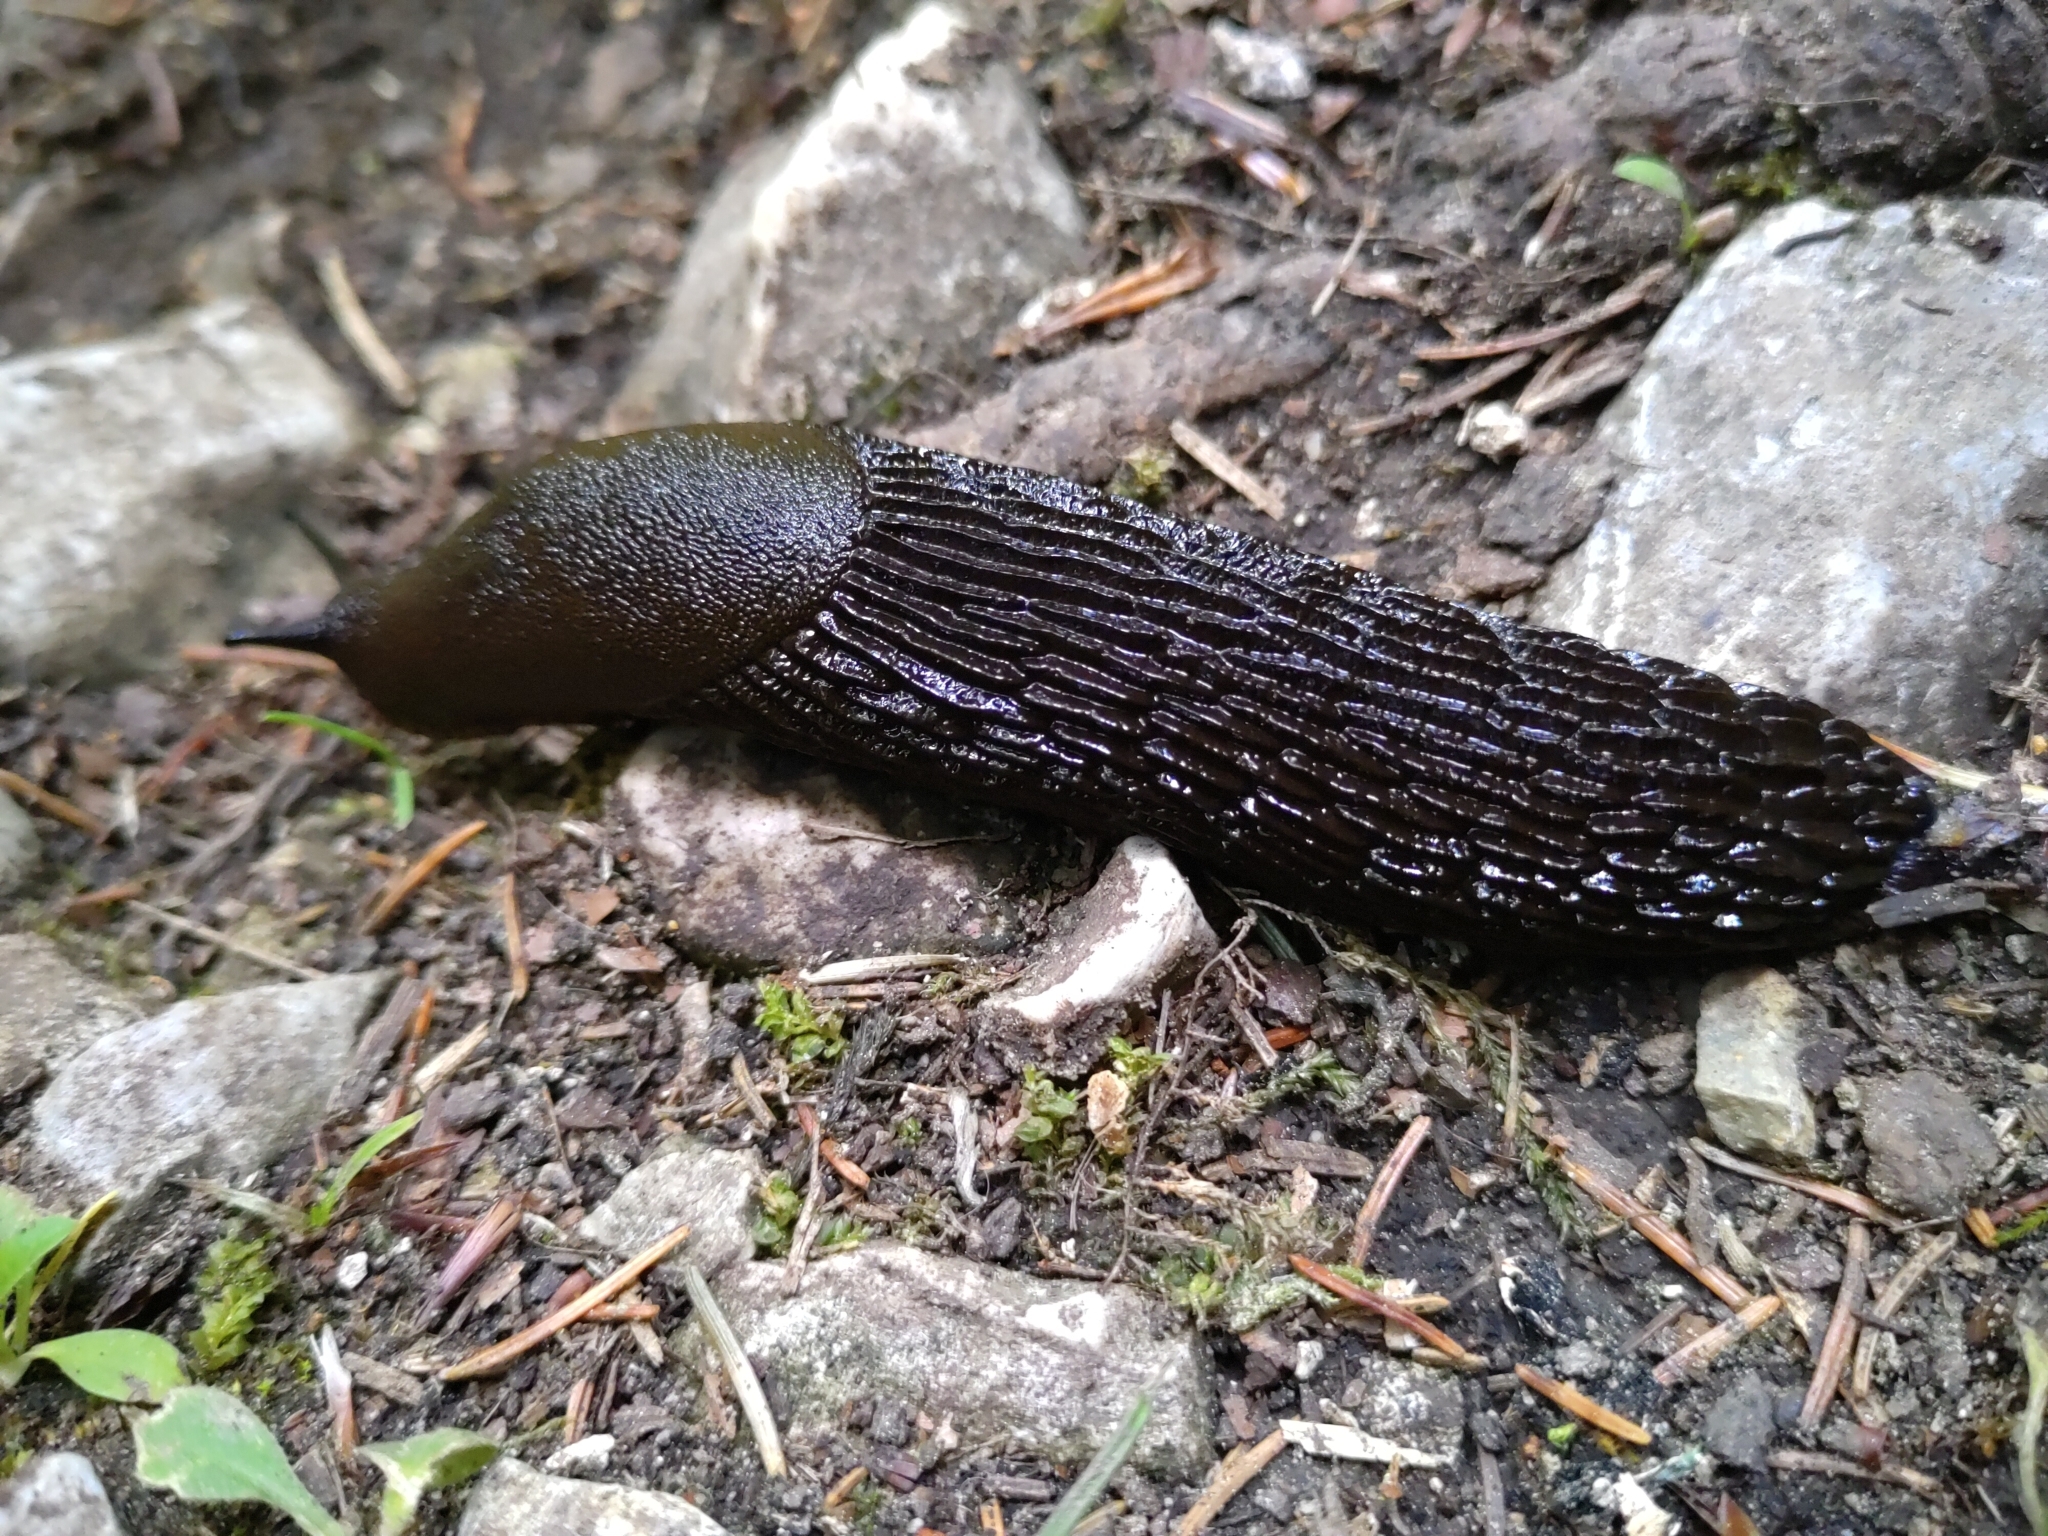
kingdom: Animalia
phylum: Mollusca
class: Gastropoda
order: Stylommatophora
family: Arionidae
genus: Arion
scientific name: Arion ater
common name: Black arion
